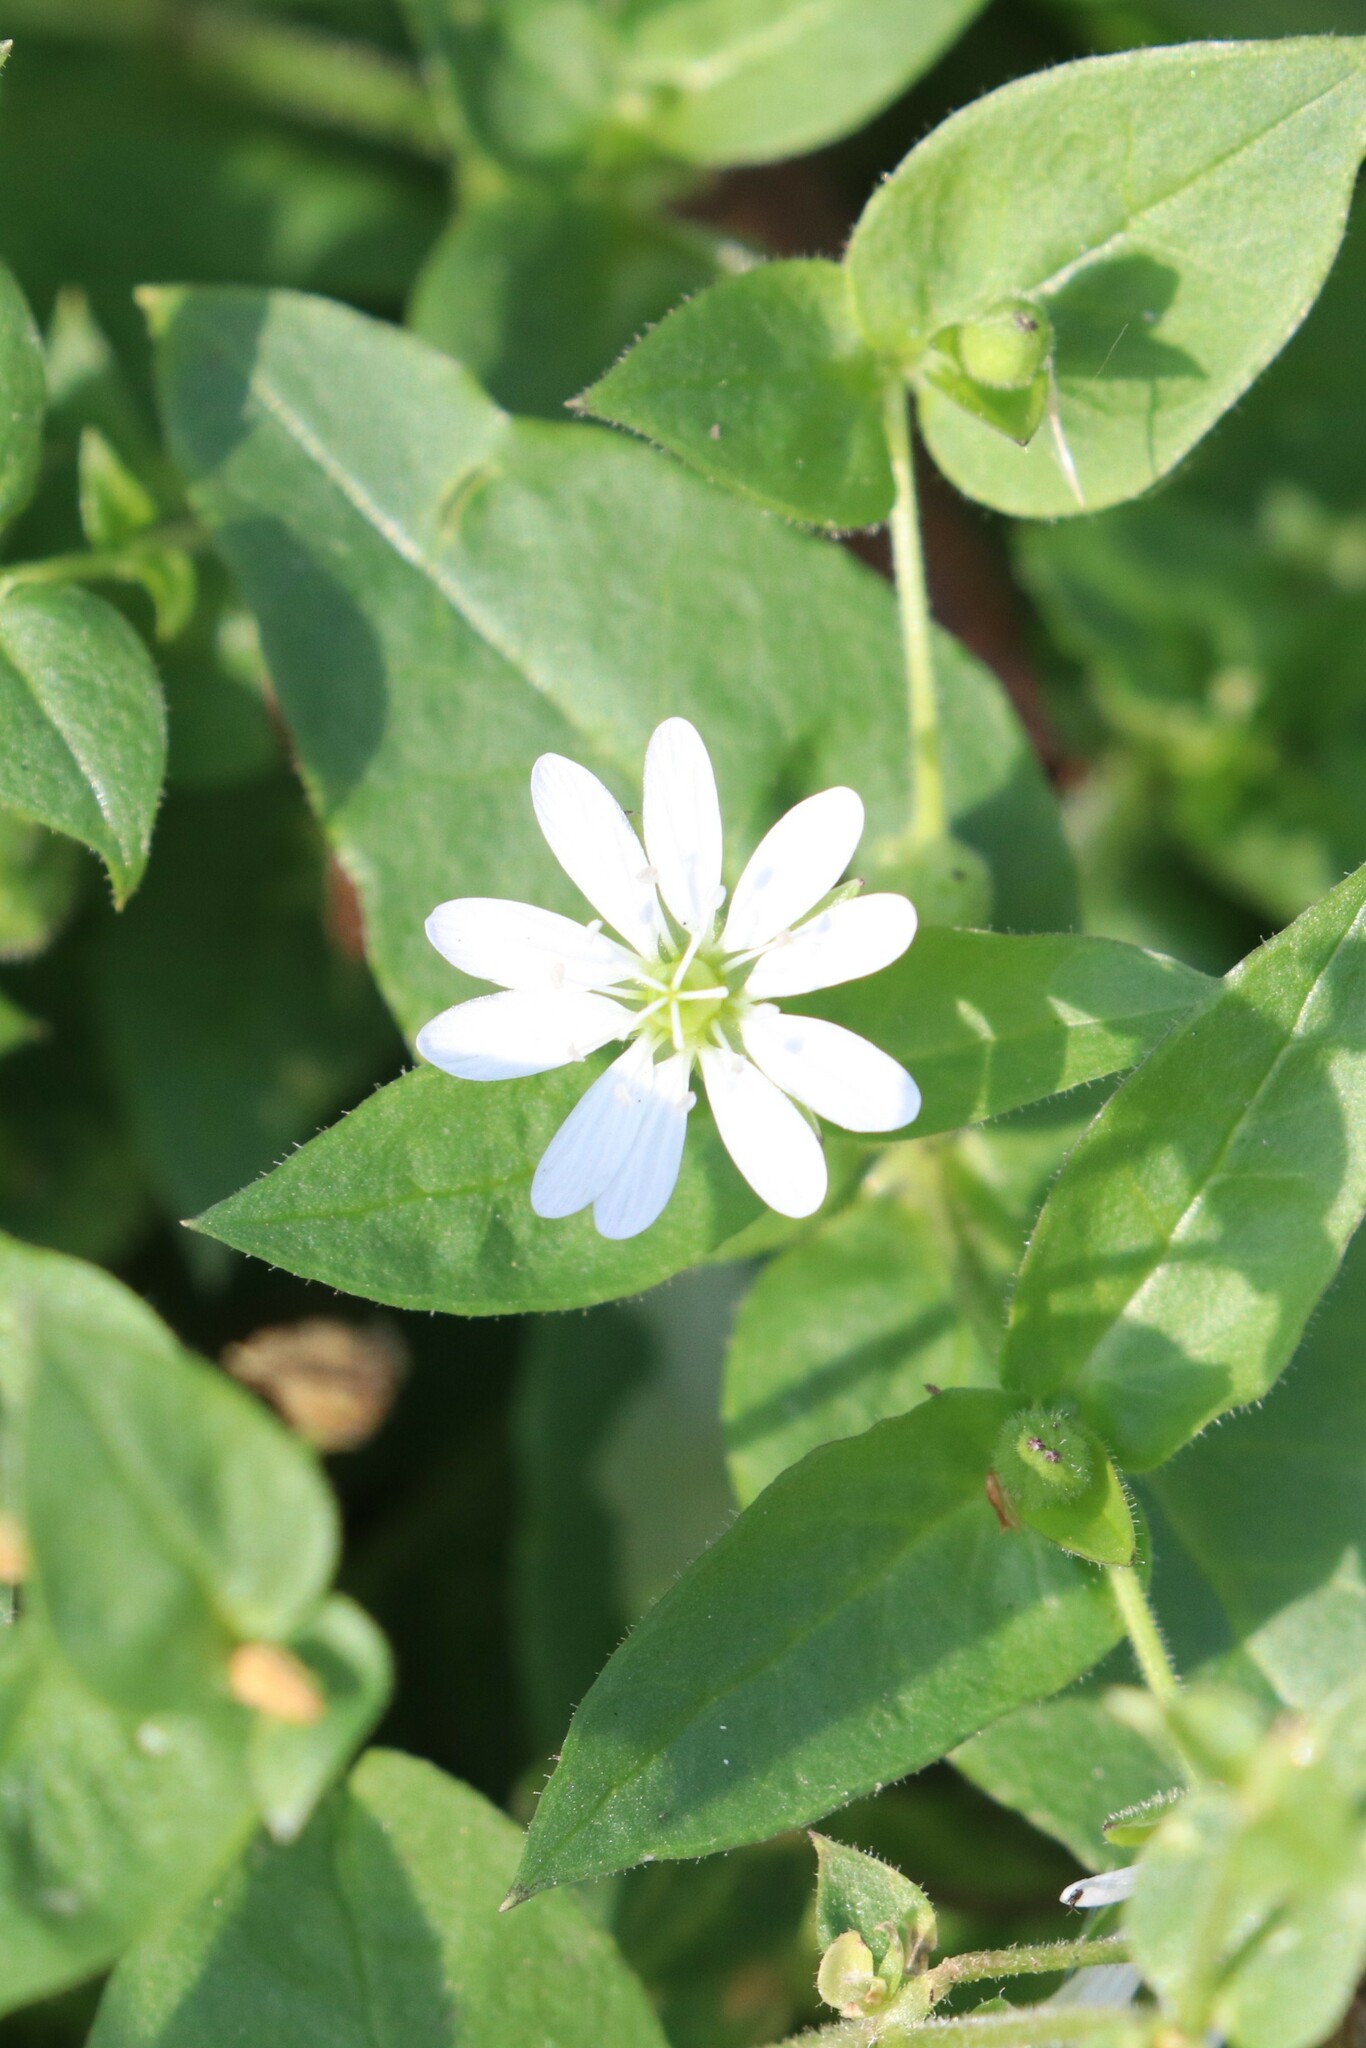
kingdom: Plantae
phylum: Tracheophyta
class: Magnoliopsida
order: Caryophyllales
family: Caryophyllaceae
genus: Stellaria
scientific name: Stellaria aquatica
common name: Water chickweed
